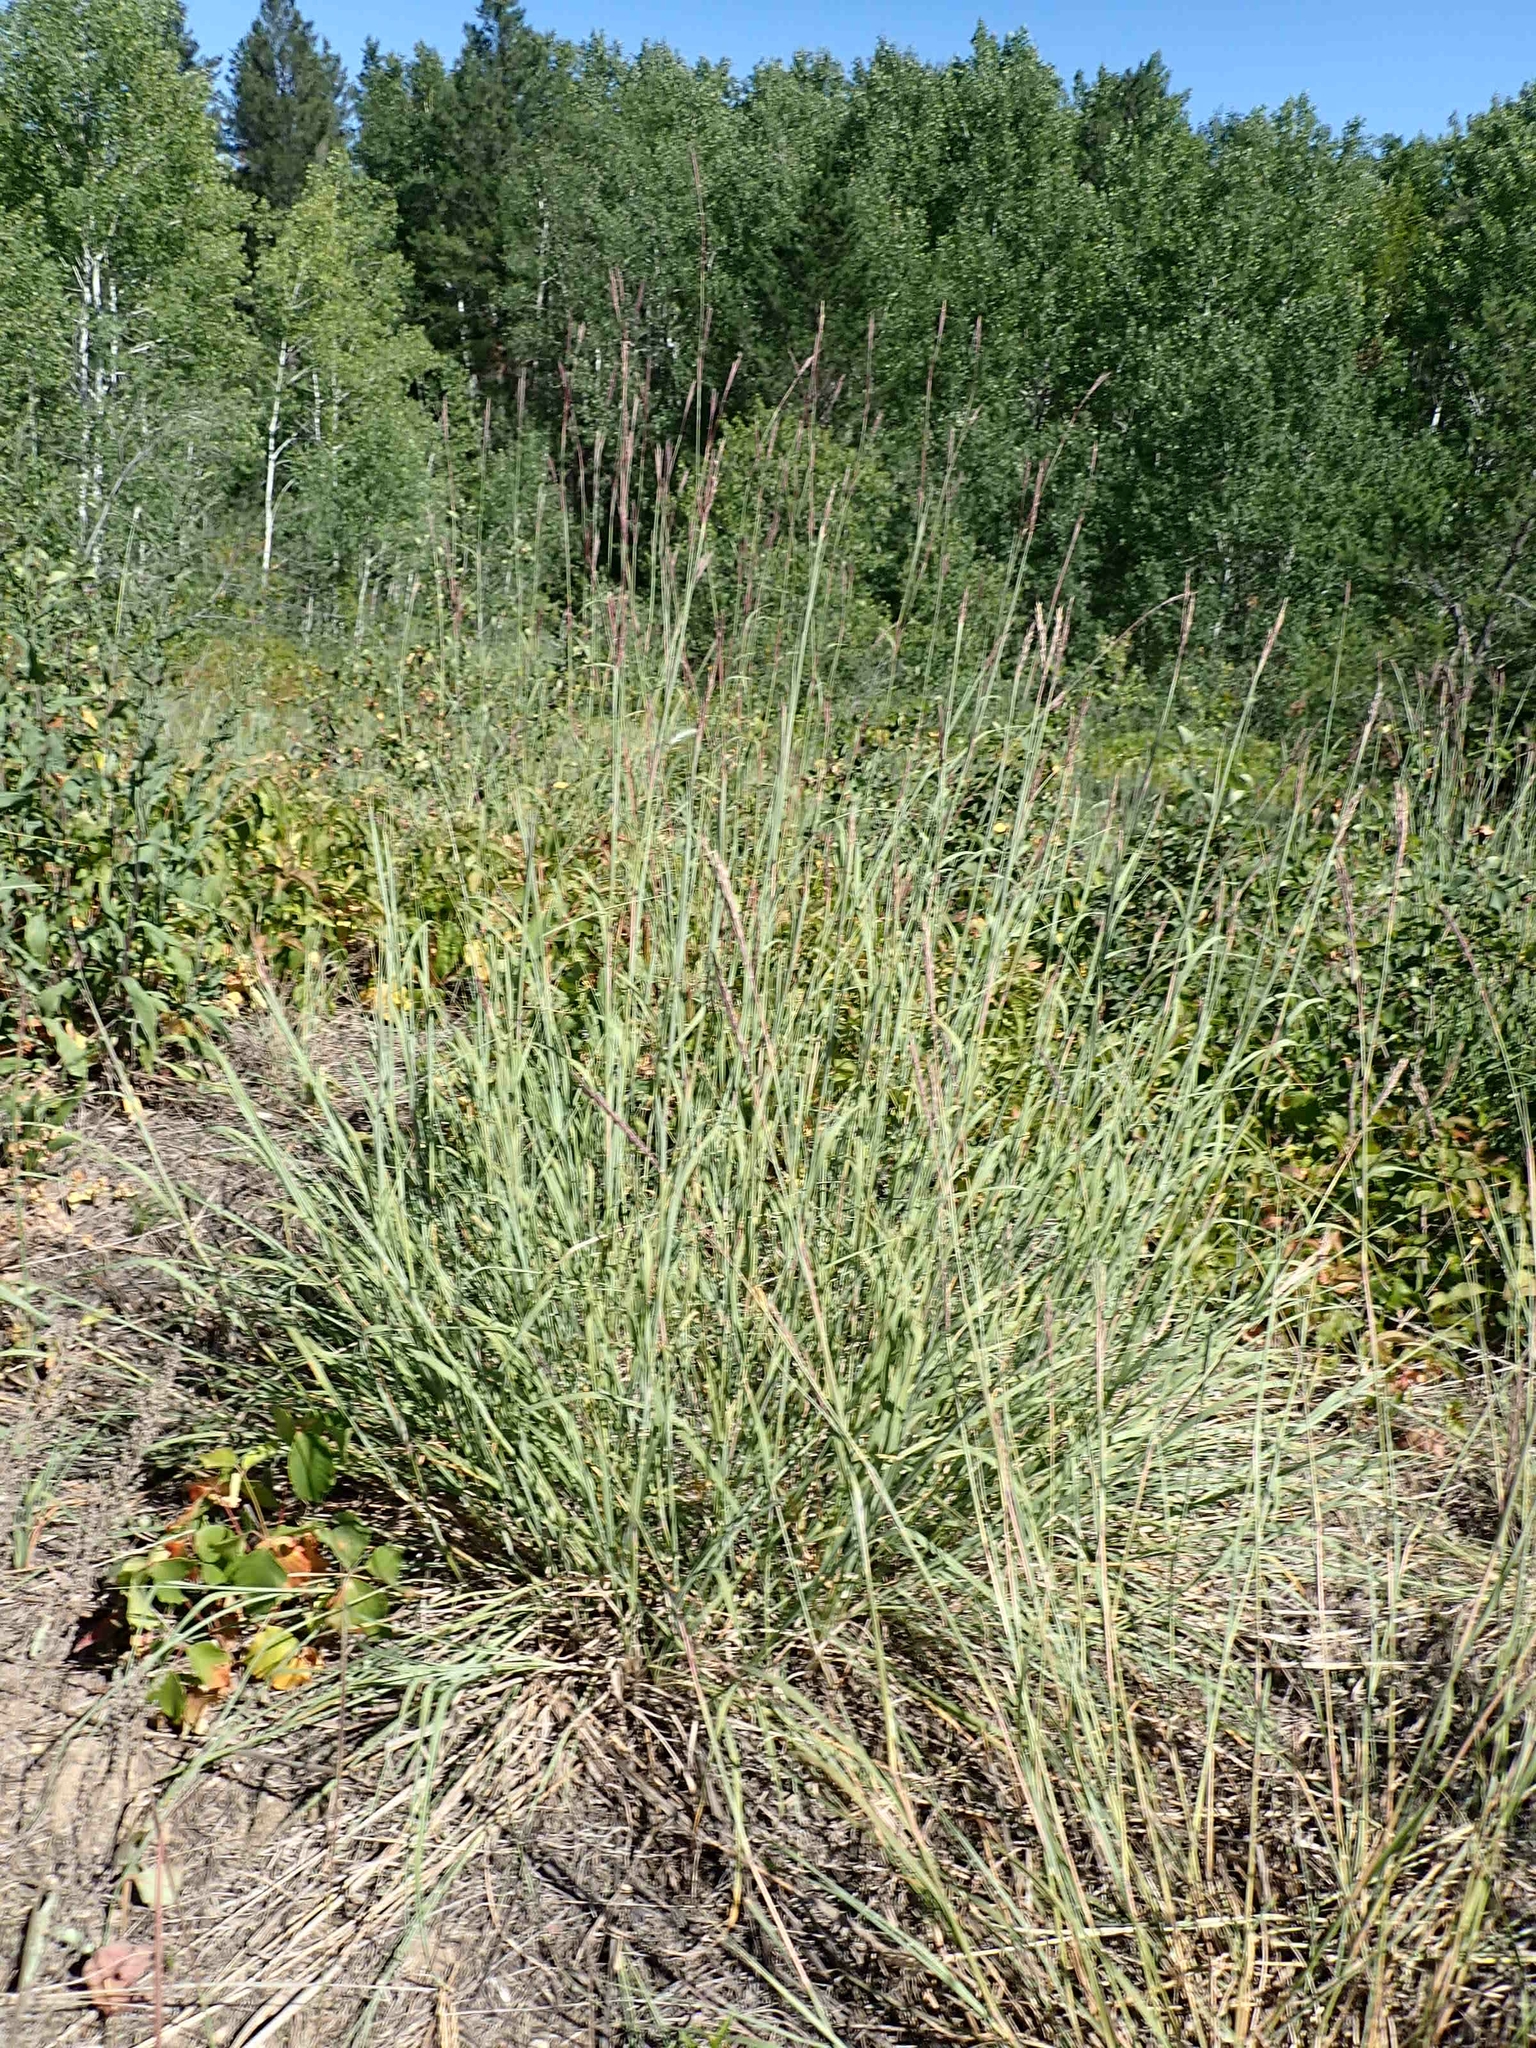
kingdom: Plantae
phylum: Tracheophyta
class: Liliopsida
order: Poales
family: Poaceae
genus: Andropogon
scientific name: Andropogon gerardi
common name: Big bluestem
